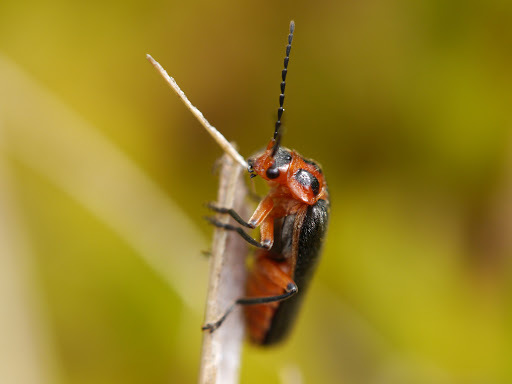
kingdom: Animalia
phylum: Arthropoda
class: Insecta
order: Coleoptera
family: Cantharidae
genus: Atalantycha
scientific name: Atalantycha bilineata
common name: Two-lined leatherwing
